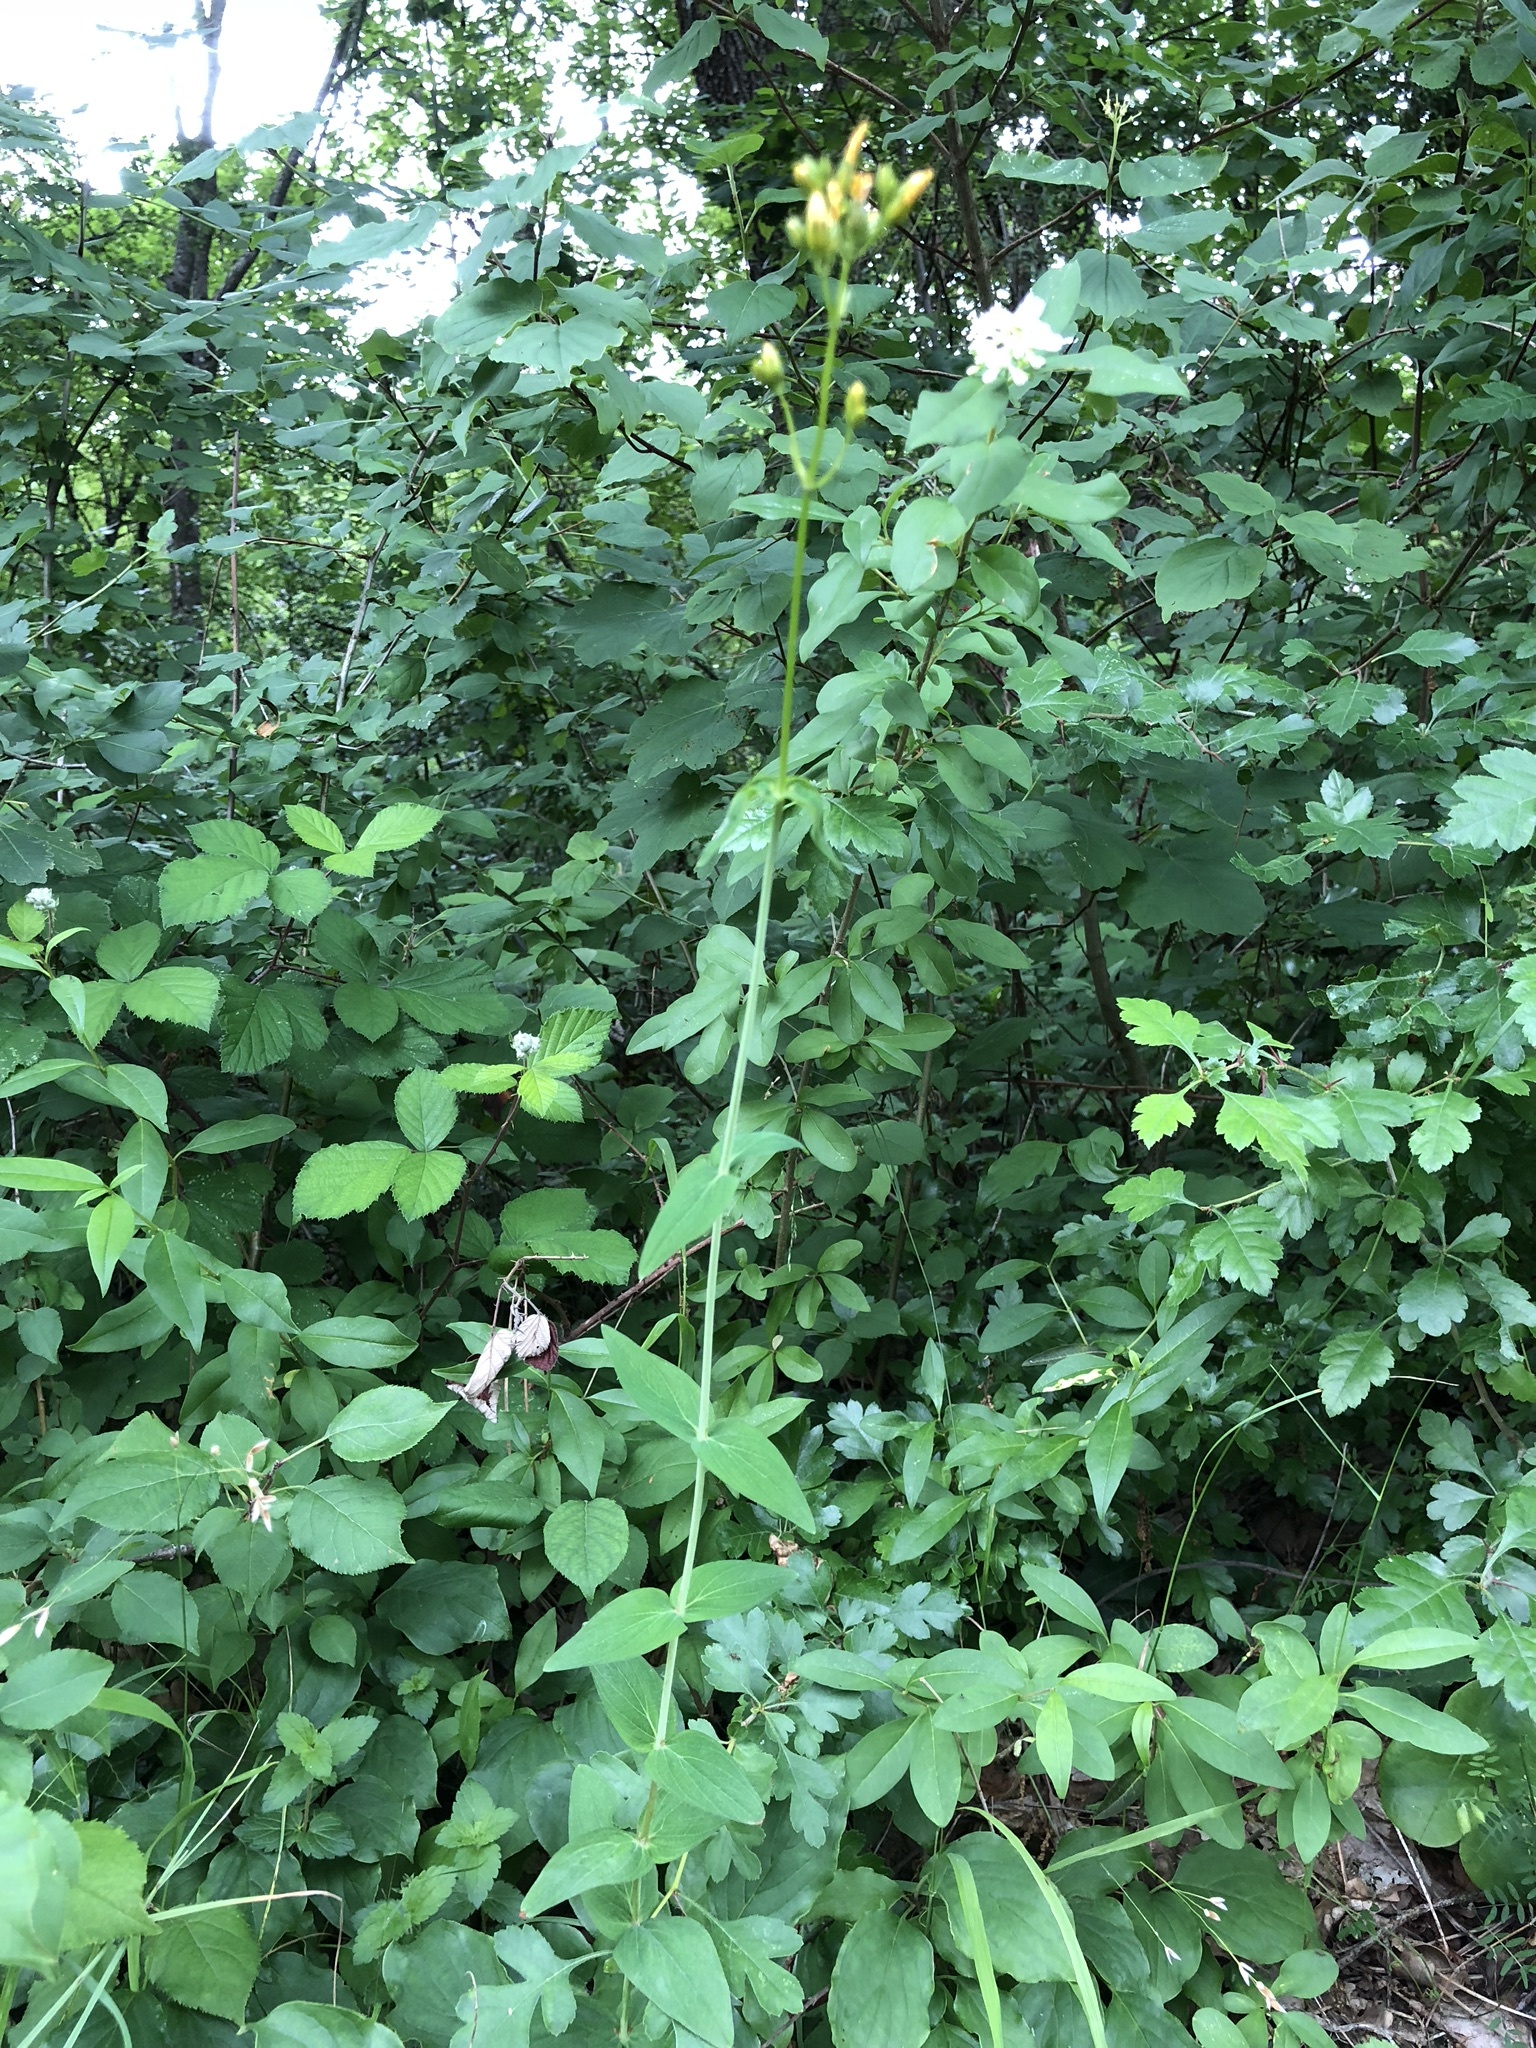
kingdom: Plantae
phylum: Tracheophyta
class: Magnoliopsida
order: Malpighiales
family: Hypericaceae
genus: Hypericum
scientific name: Hypericum montanum
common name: Pale st. john's-wort
